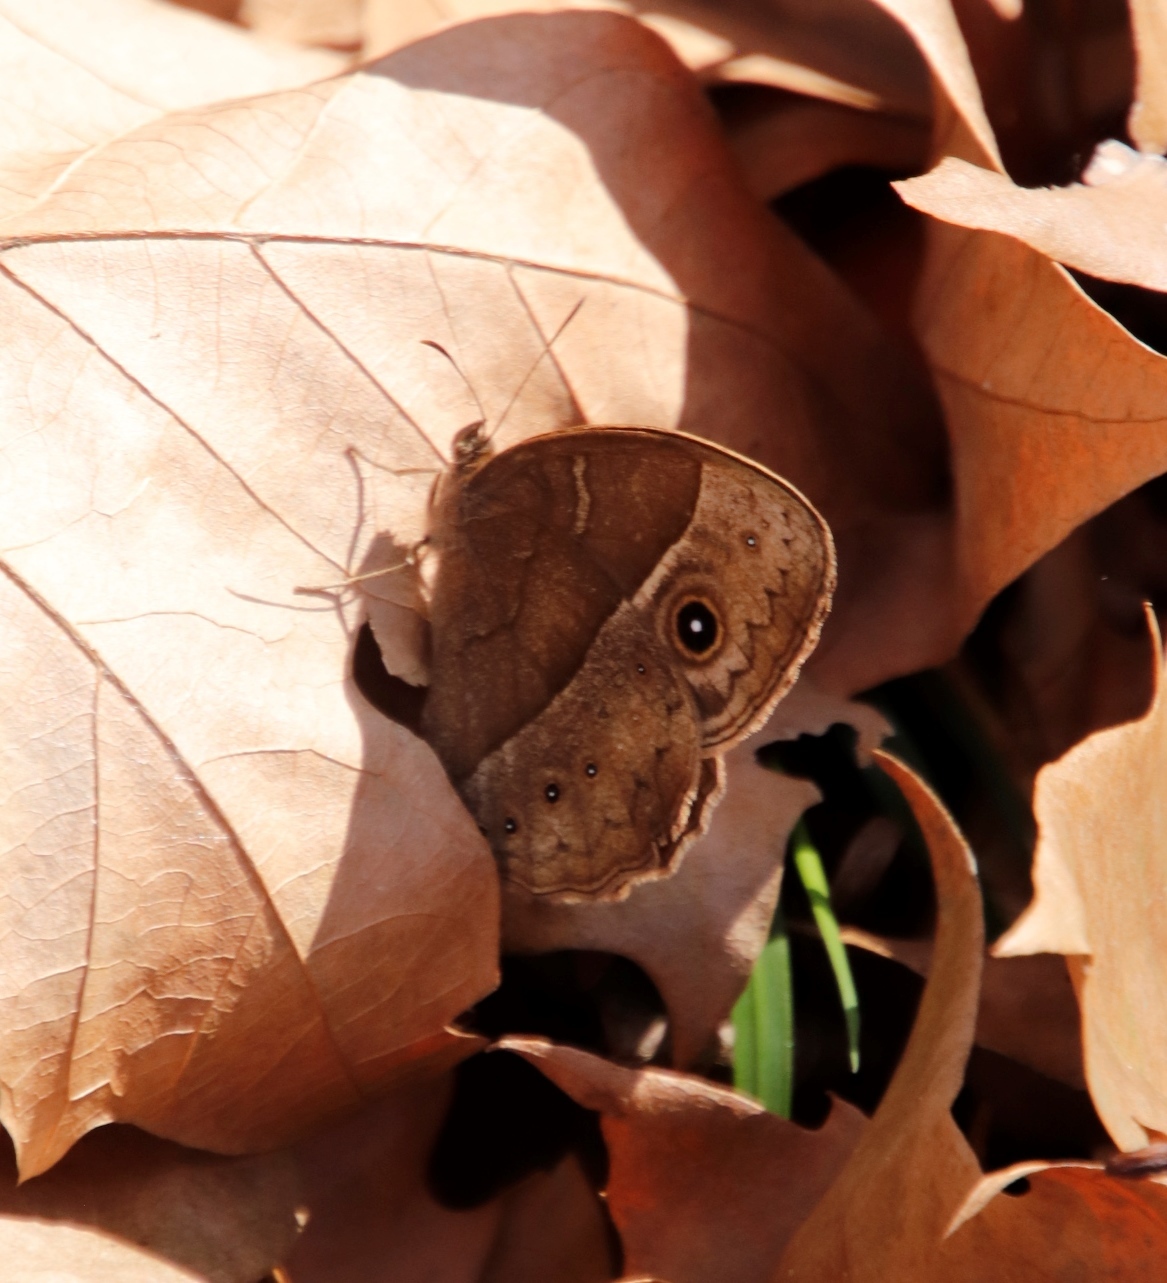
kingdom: Animalia
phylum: Arthropoda
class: Insecta
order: Lepidoptera
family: Nymphalidae
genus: Mycalesis
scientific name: Mycalesis rhacotis
